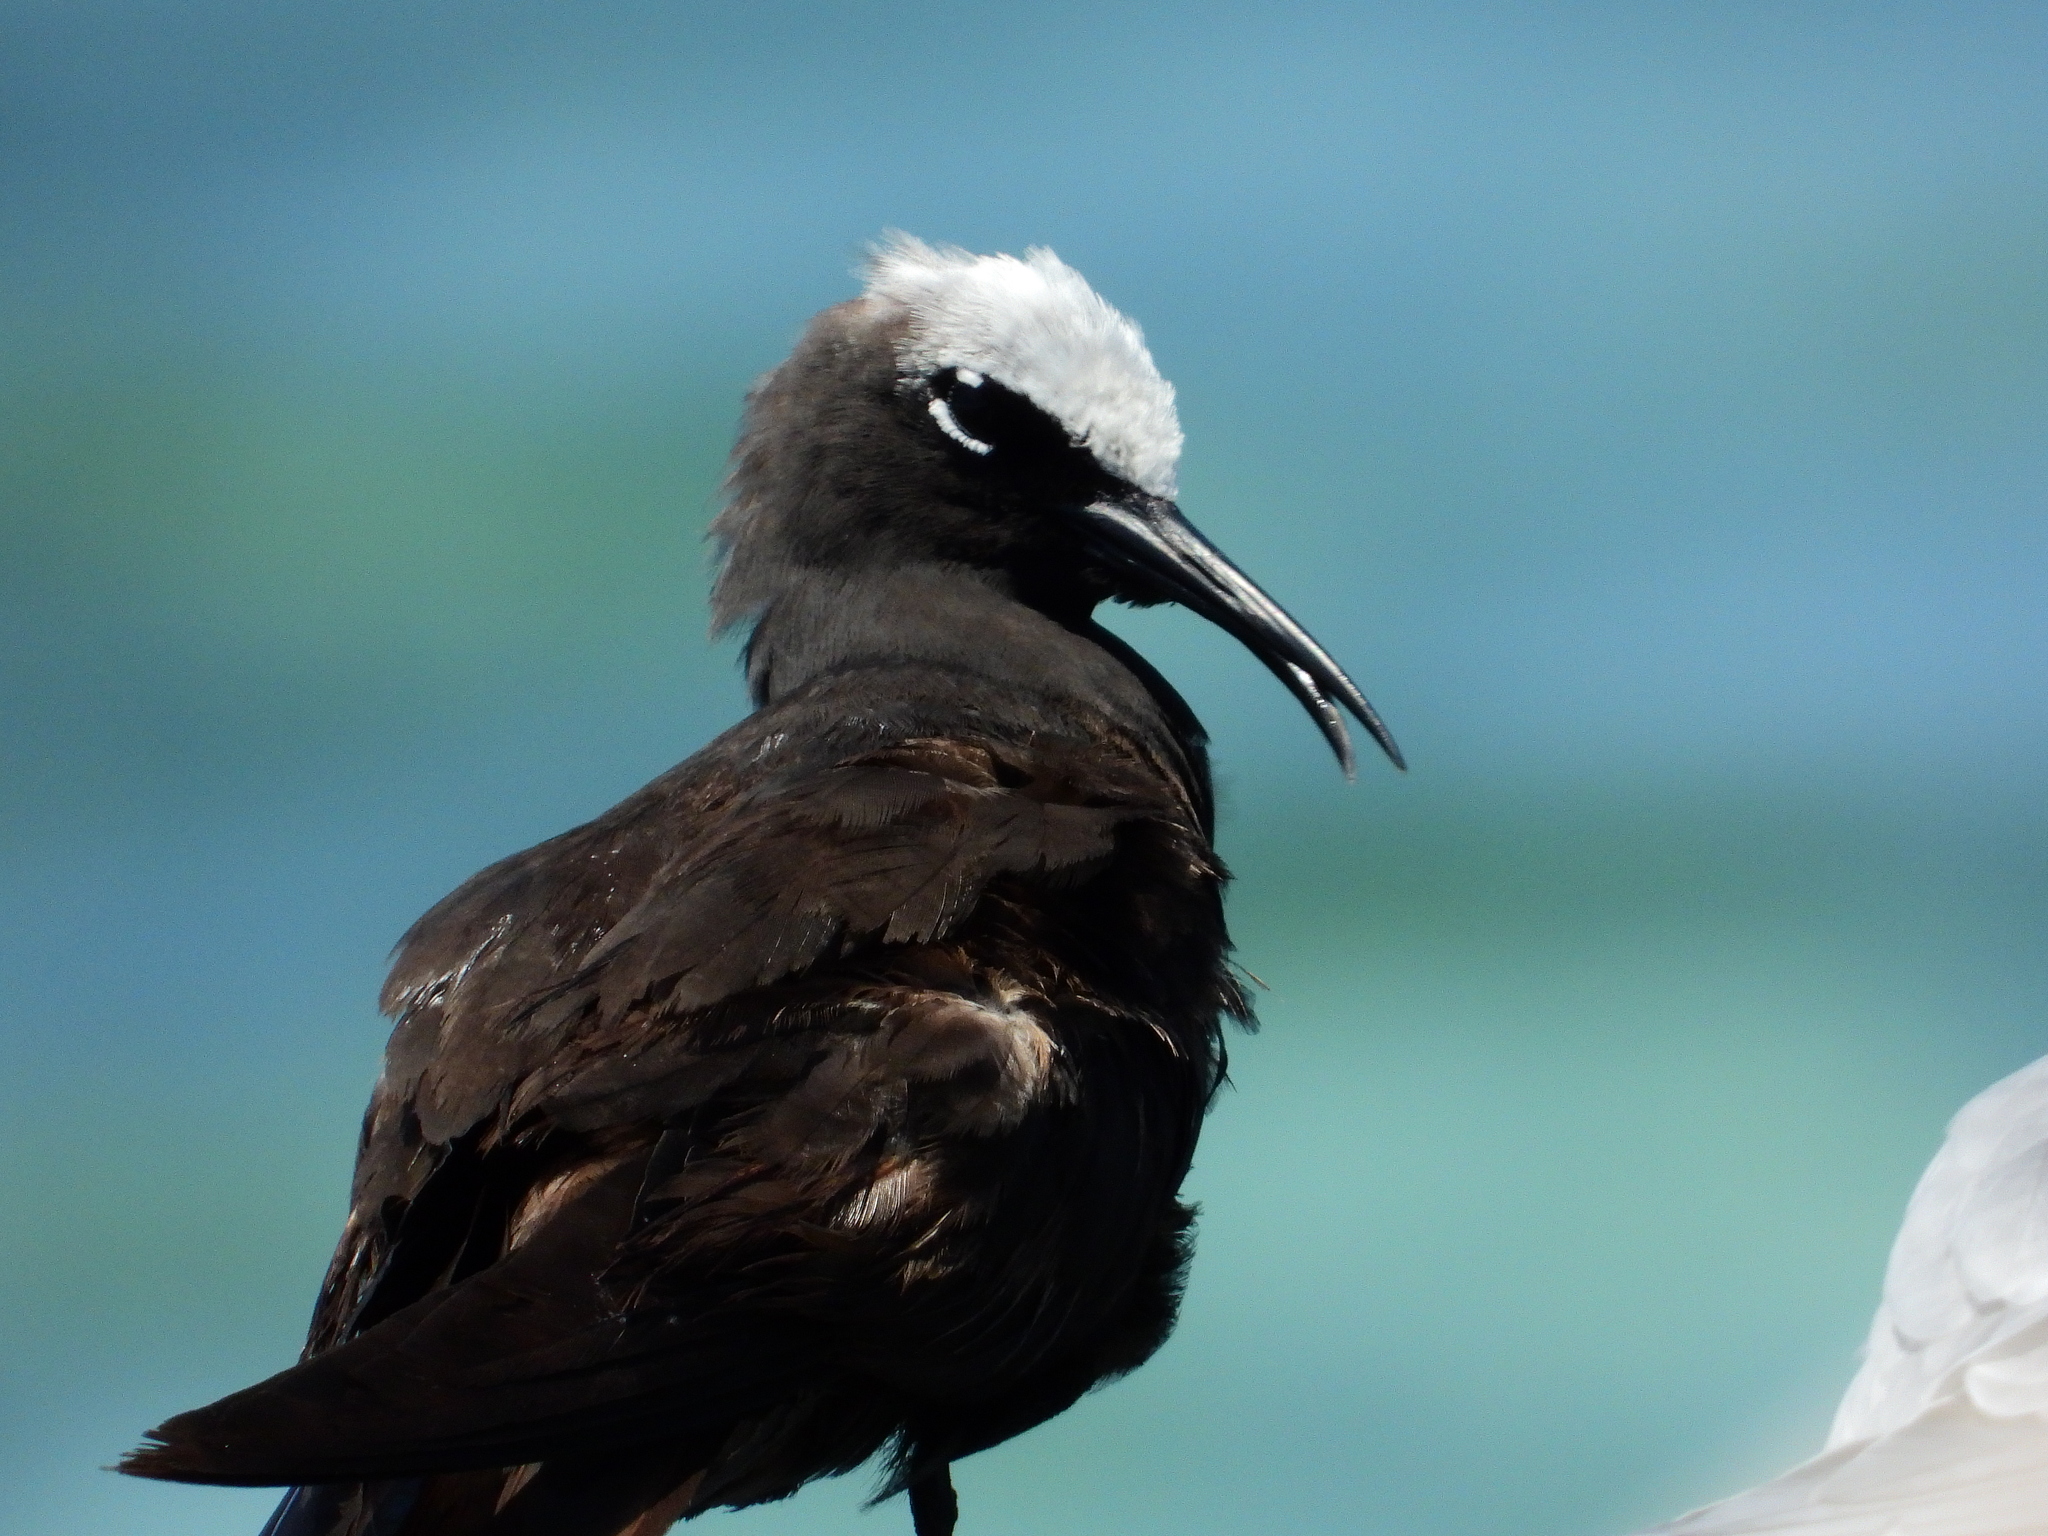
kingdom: Animalia
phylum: Chordata
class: Aves
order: Charadriiformes
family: Laridae
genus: Anous
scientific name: Anous minutus
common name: Black noddy
